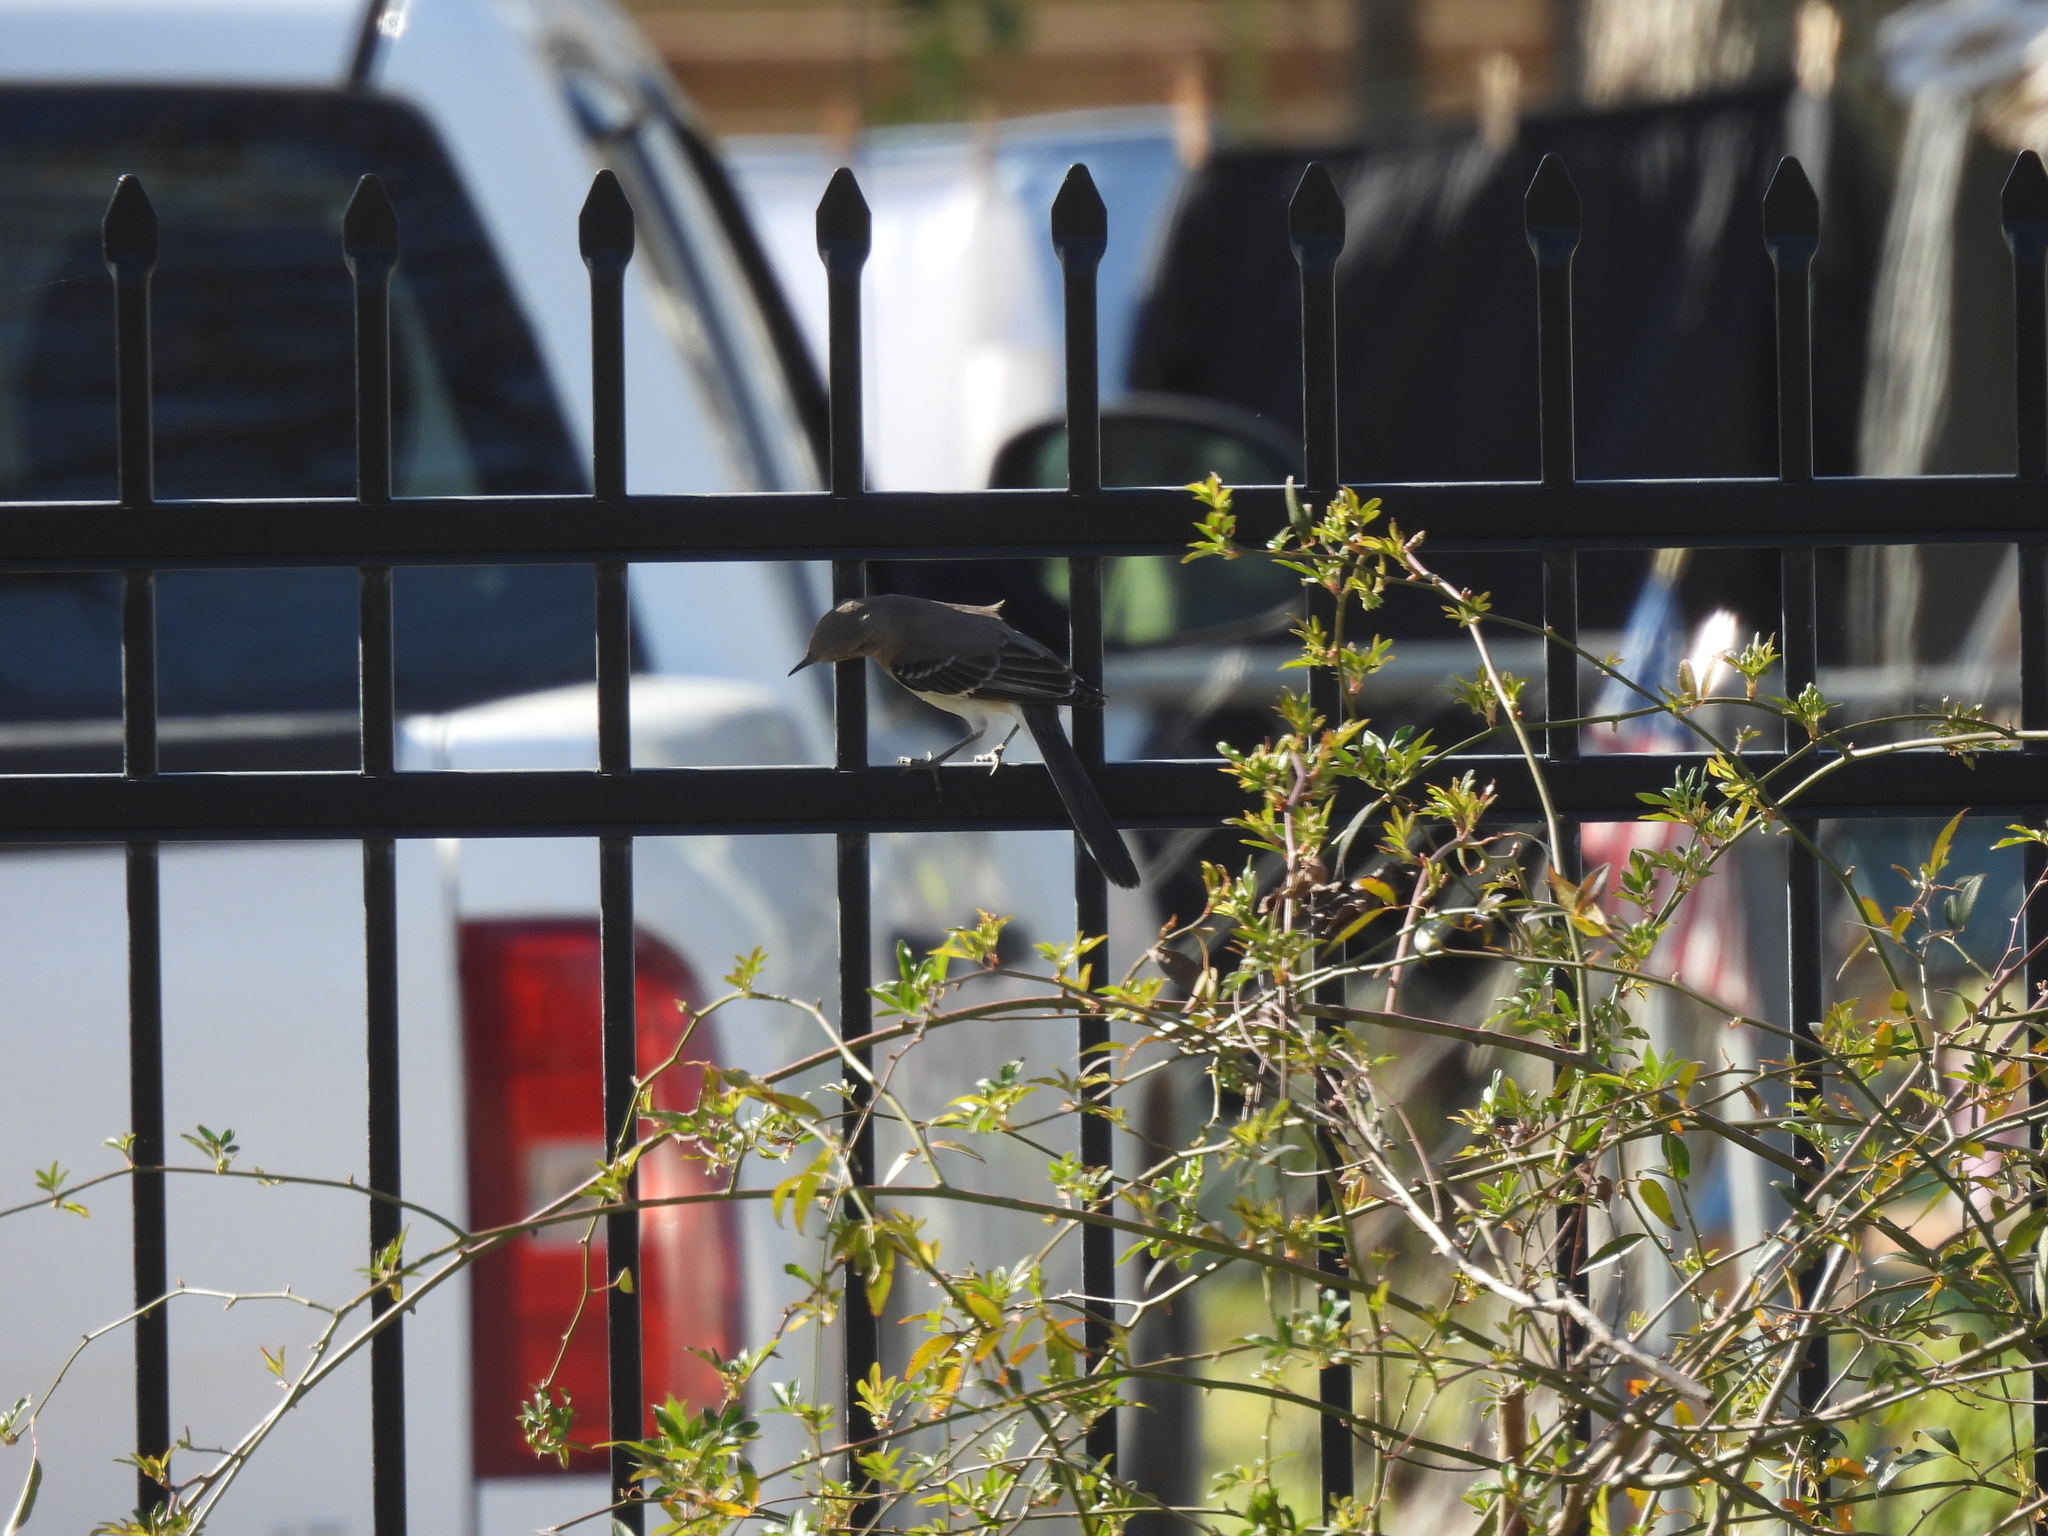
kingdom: Animalia
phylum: Chordata
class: Aves
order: Passeriformes
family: Mimidae
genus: Mimus
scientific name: Mimus polyglottos
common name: Northern mockingbird
